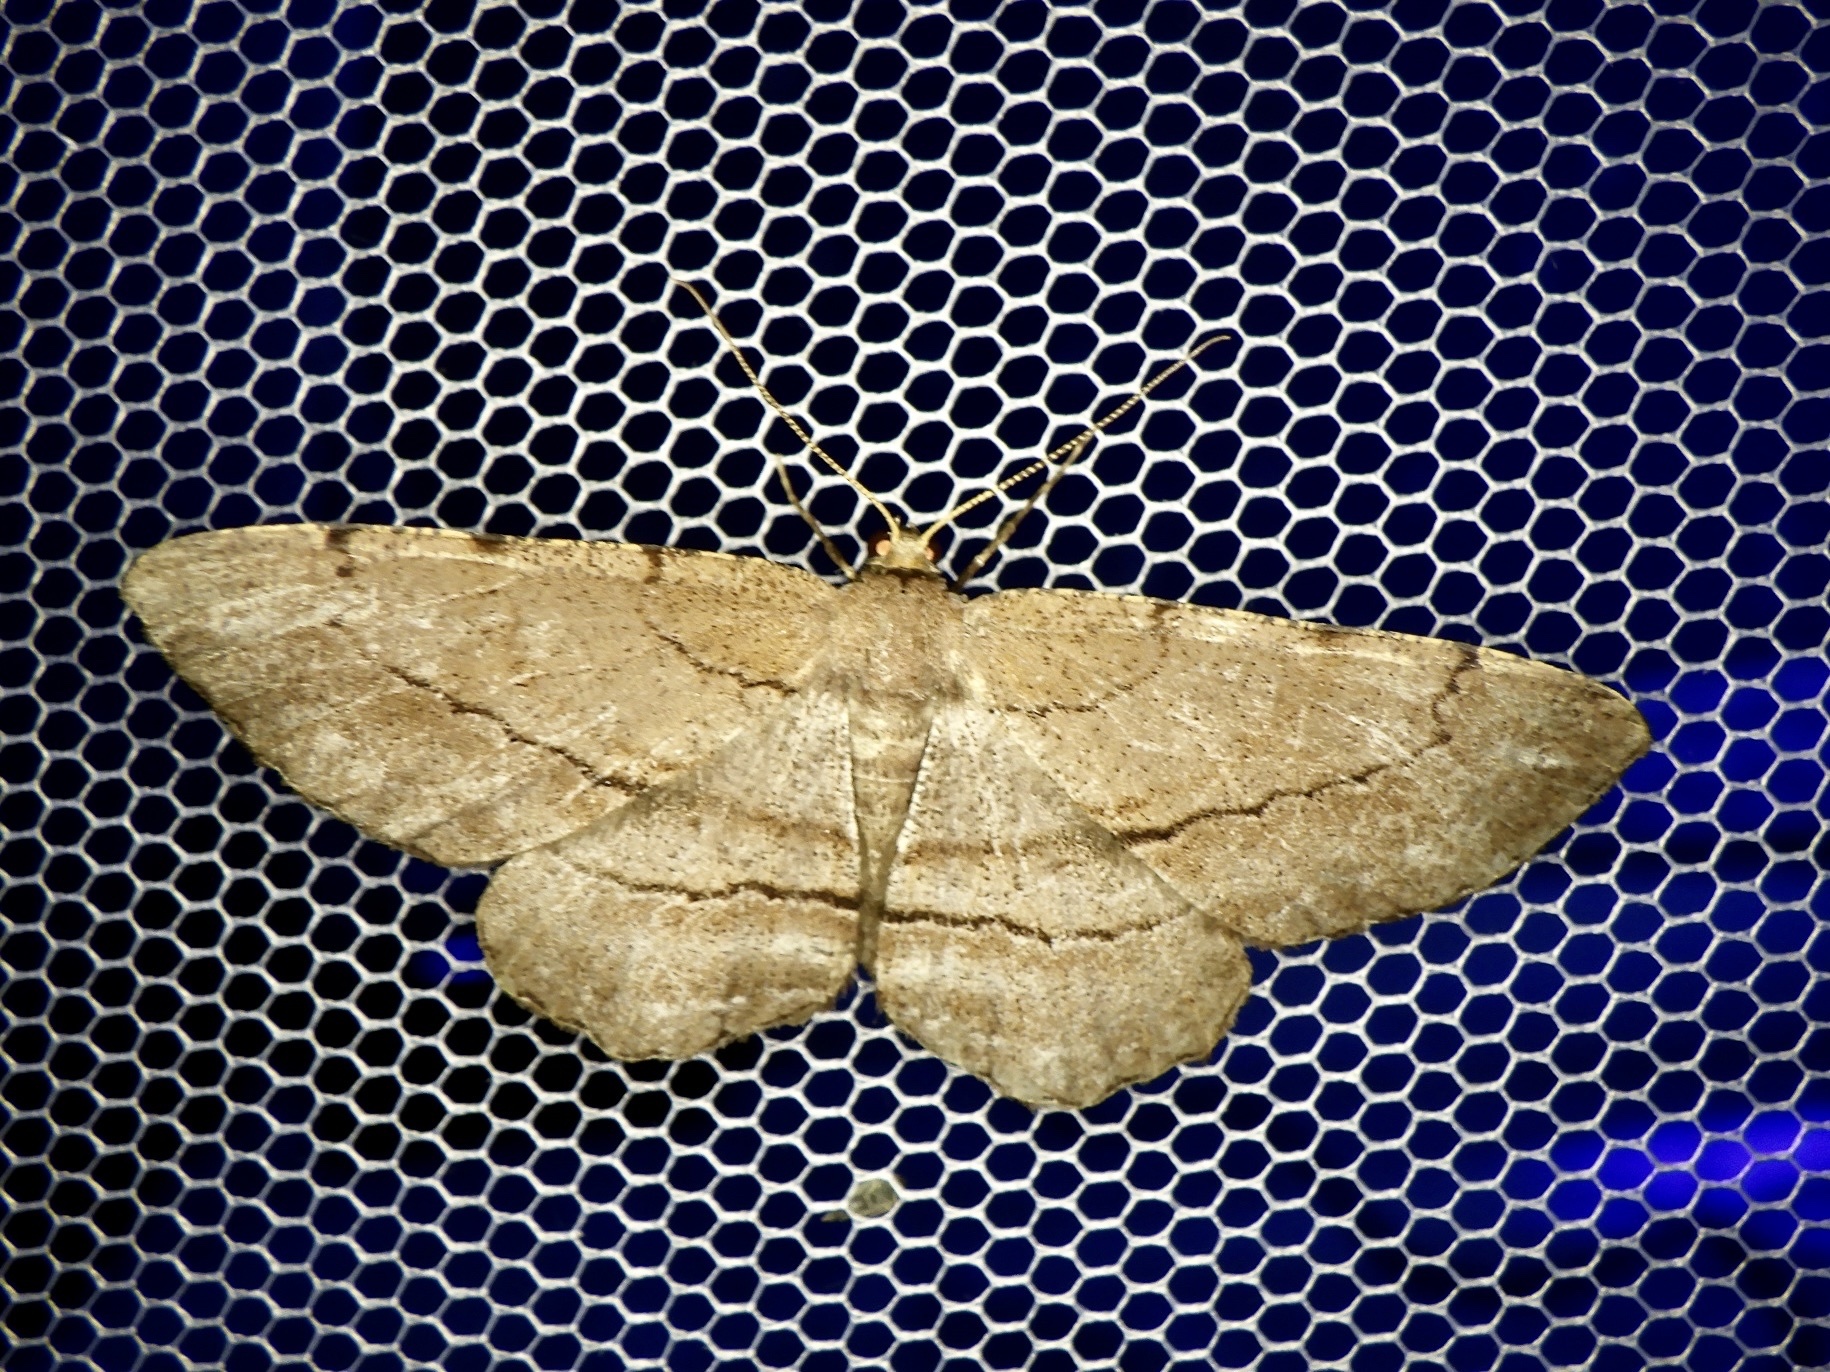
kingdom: Animalia
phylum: Arthropoda
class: Insecta
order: Lepidoptera
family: Geometridae
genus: Apocleora
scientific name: Apocleora rimosa
